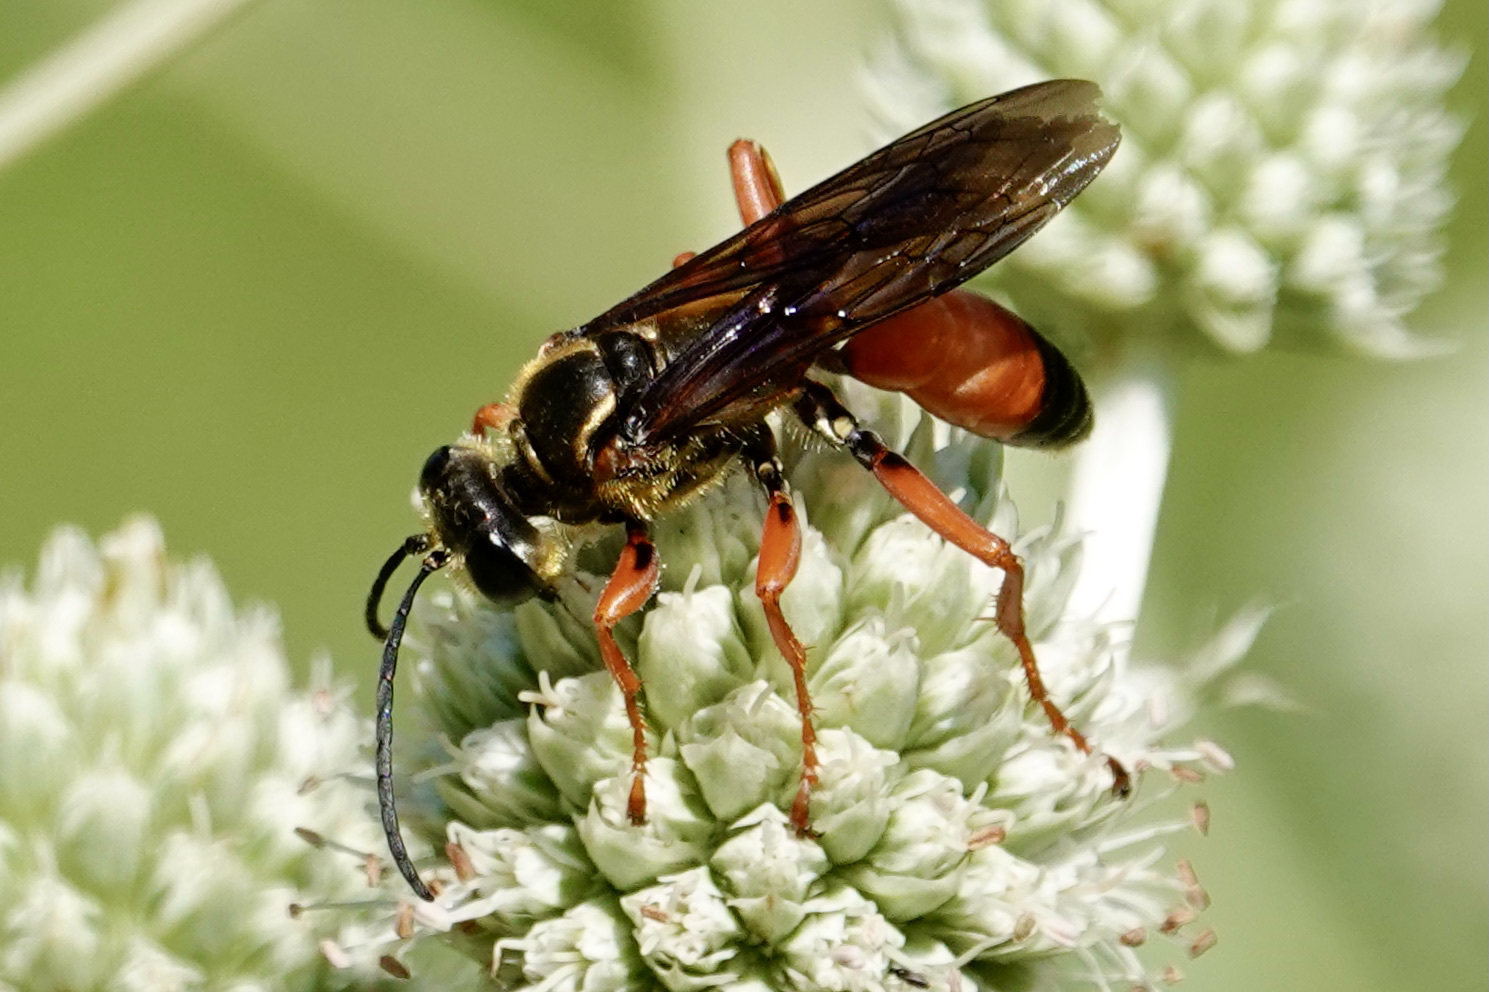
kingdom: Animalia
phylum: Arthropoda
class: Insecta
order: Hymenoptera
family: Sphecidae
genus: Sphex
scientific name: Sphex ichneumoneus
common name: Great golden digger wasp
